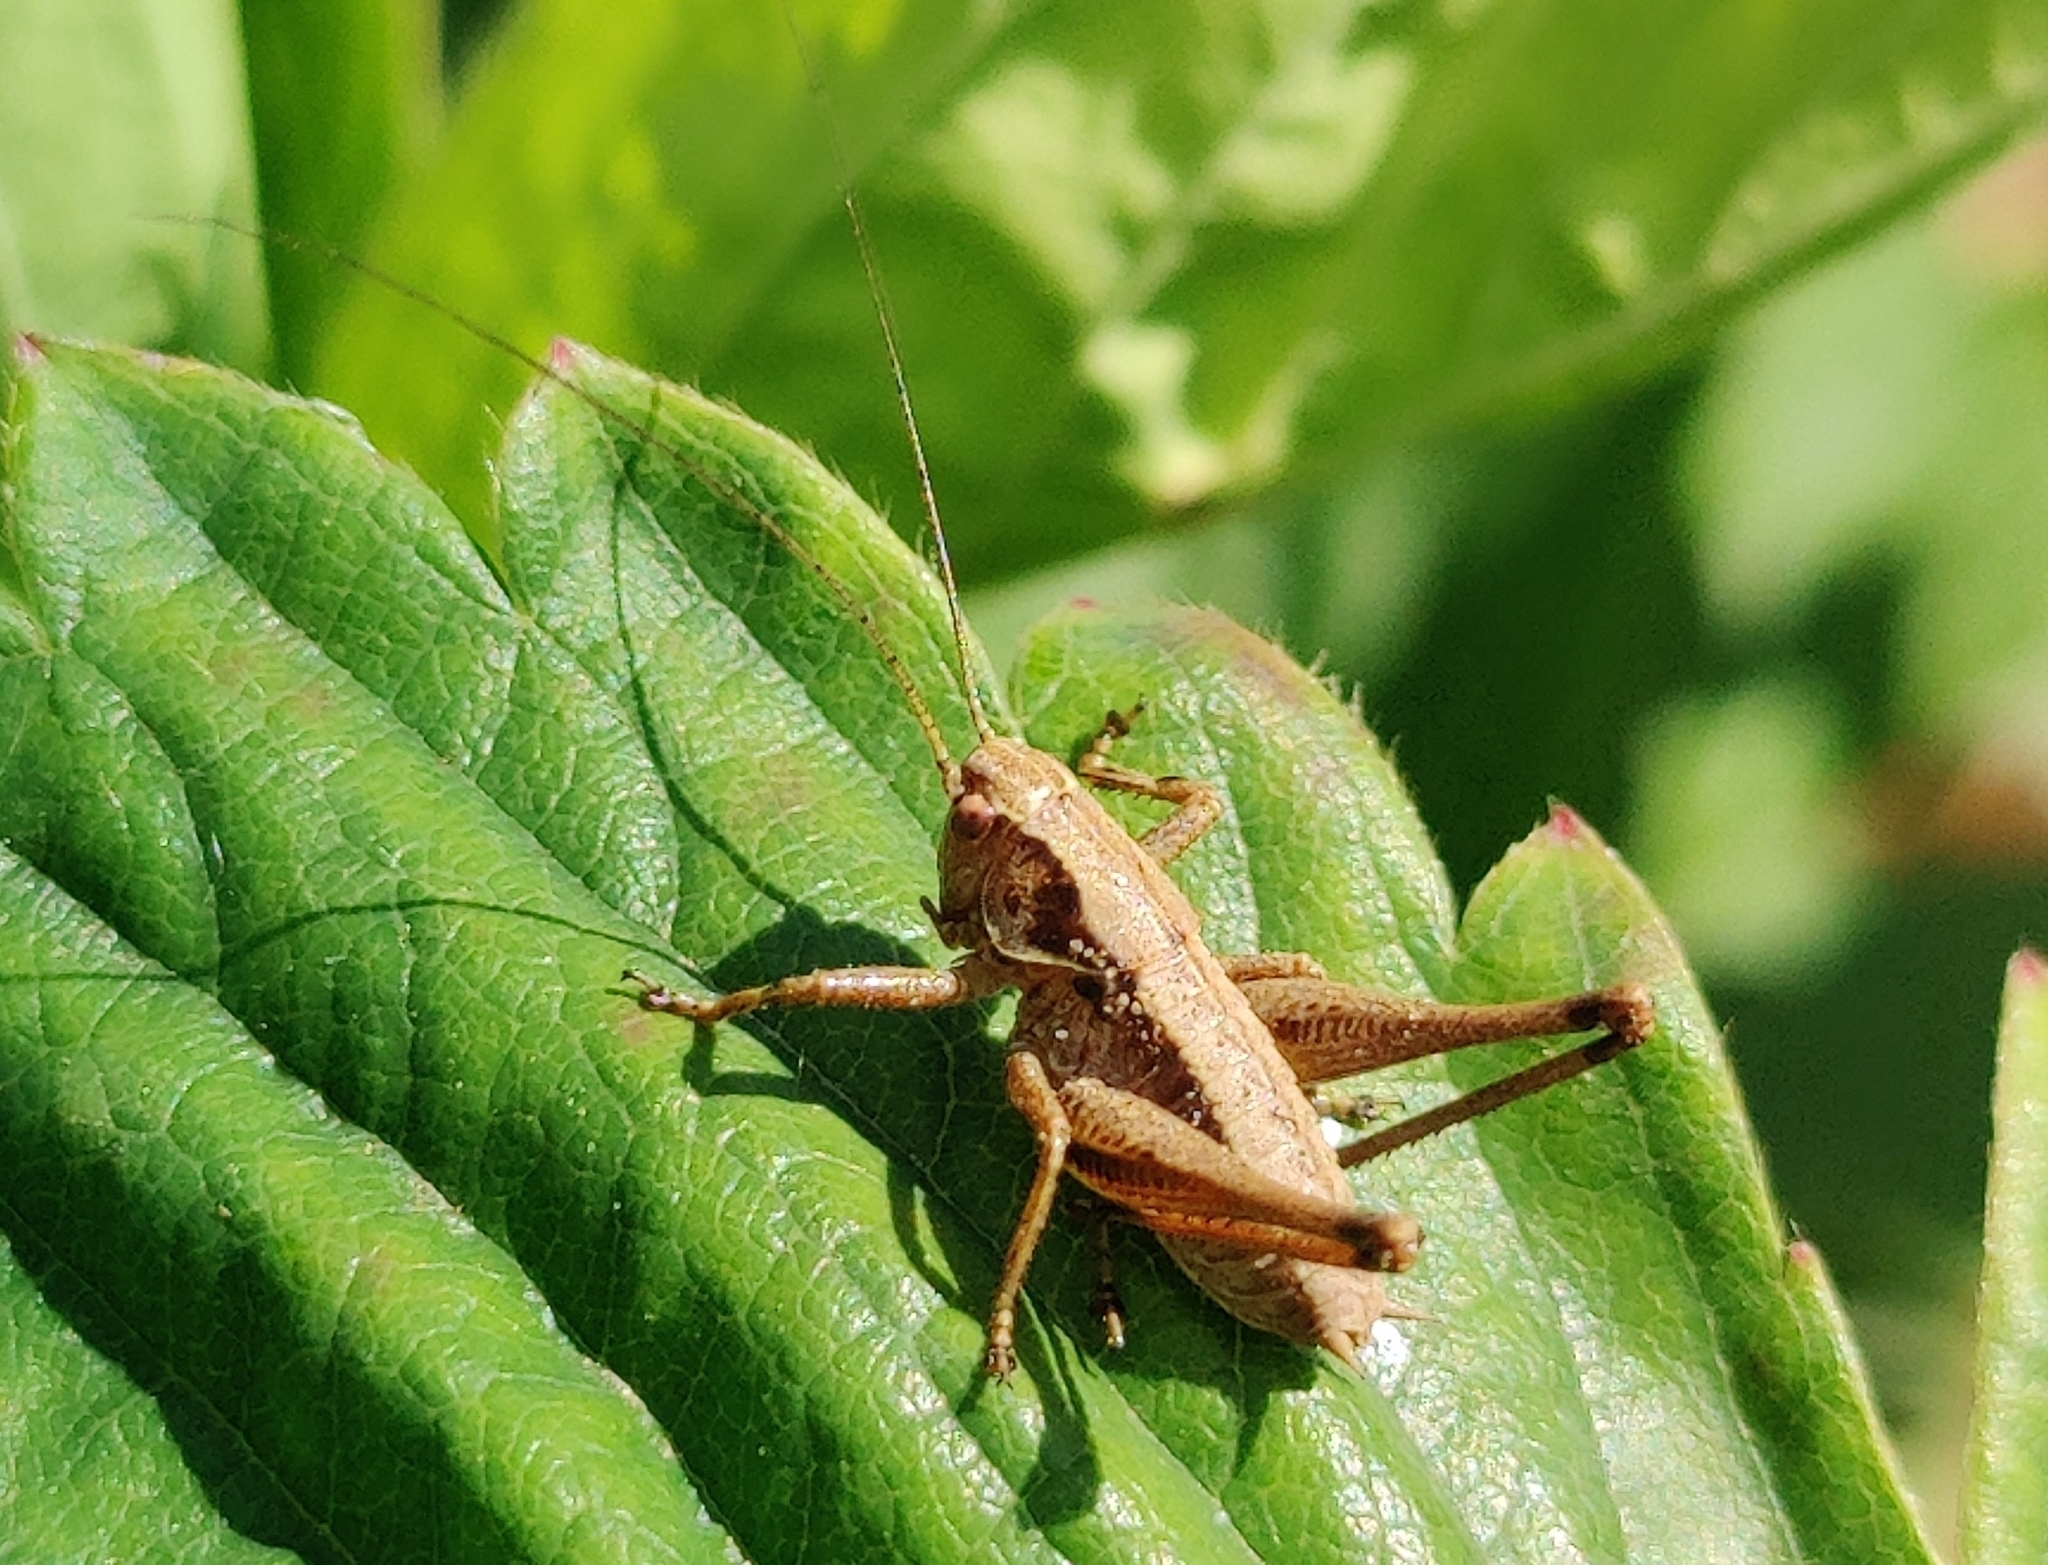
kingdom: Animalia
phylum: Arthropoda
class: Insecta
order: Orthoptera
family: Tettigoniidae
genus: Pholidoptera
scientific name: Pholidoptera griseoaptera
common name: Dark bush-cricket
